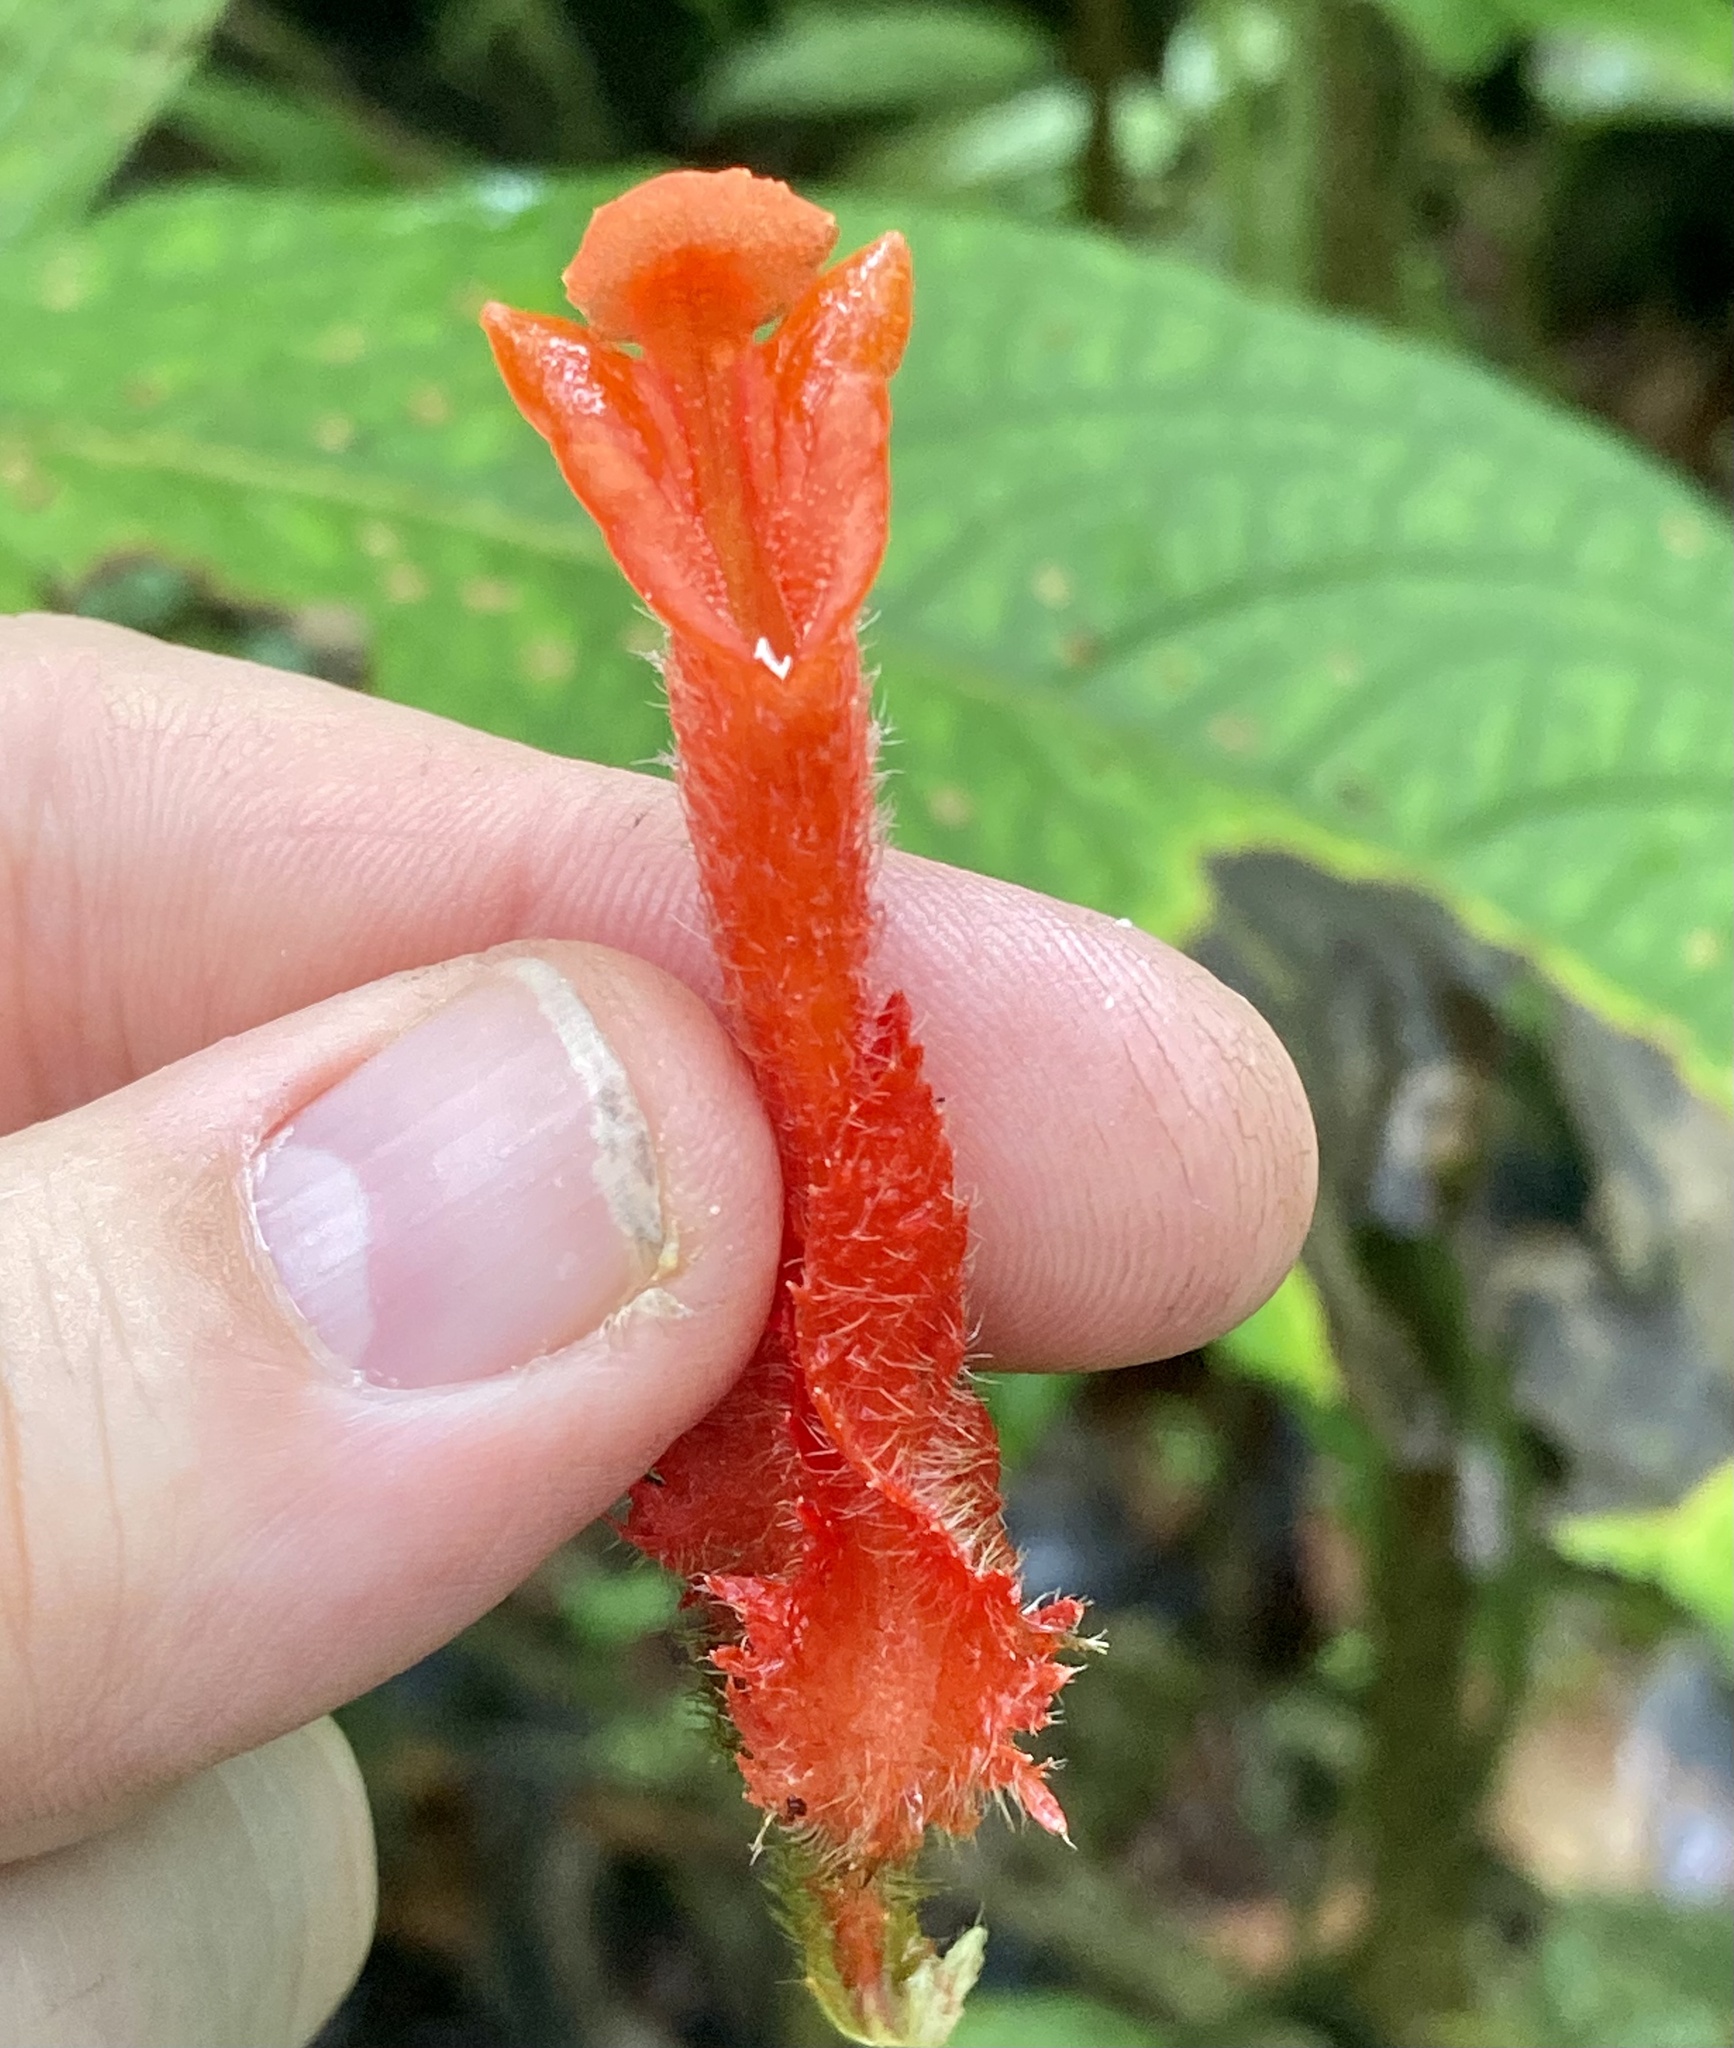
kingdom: Plantae
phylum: Tracheophyta
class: Magnoliopsida
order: Lamiales
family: Gesneriaceae
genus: Glossoloma
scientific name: Glossoloma panamense
